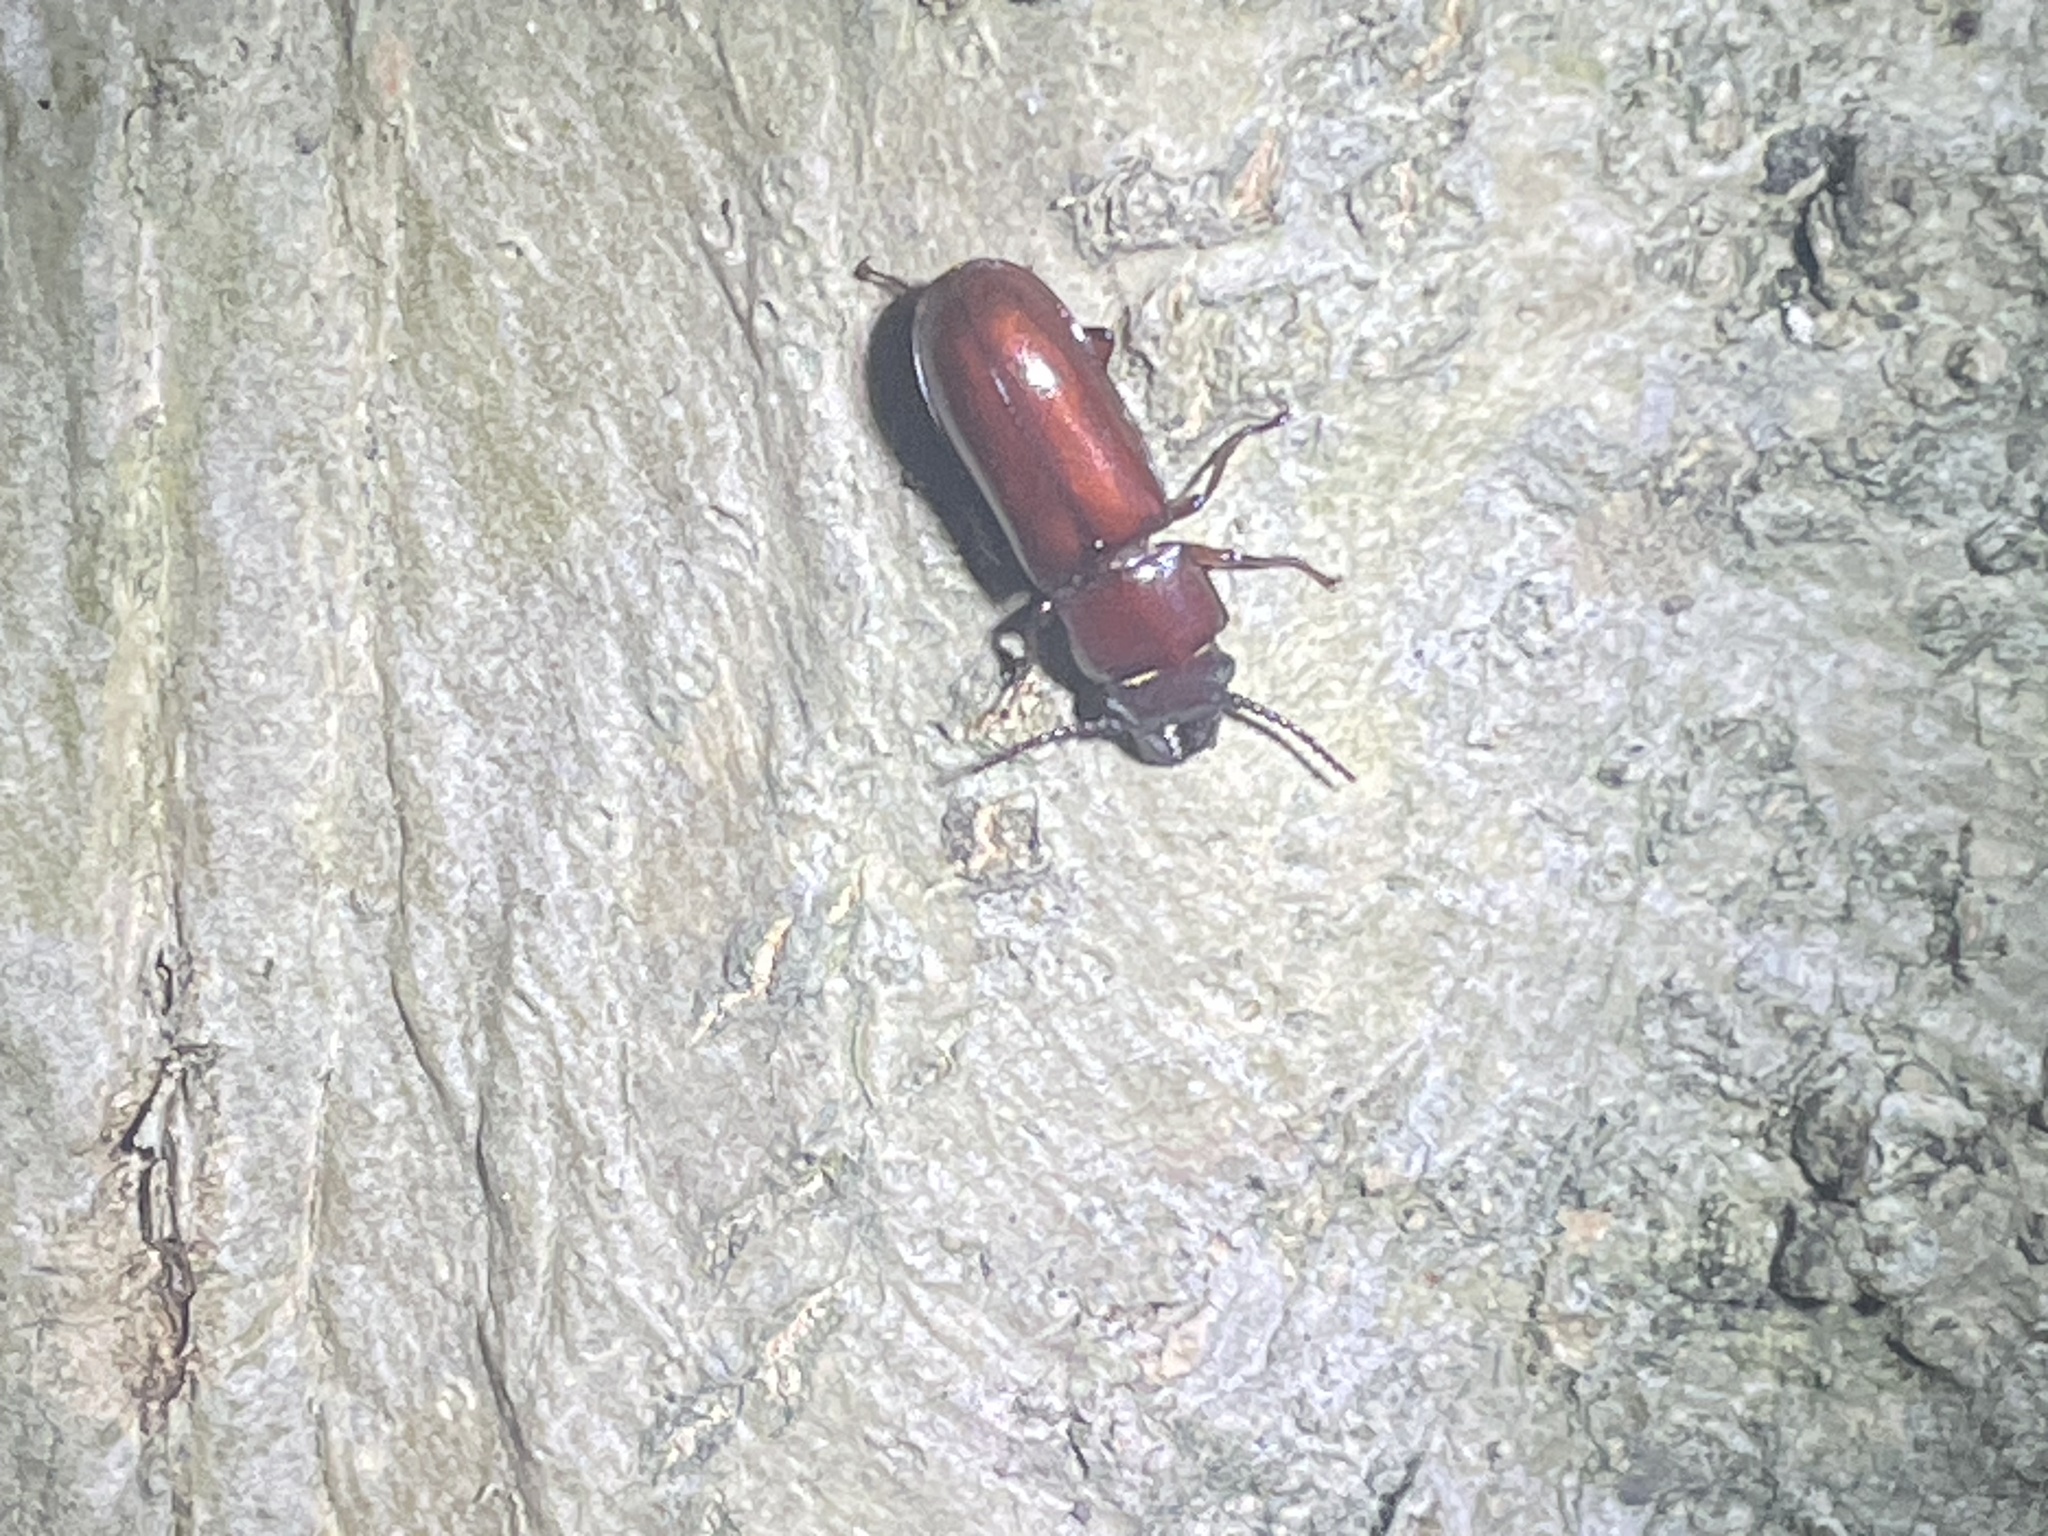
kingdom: Animalia
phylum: Arthropoda
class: Insecta
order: Coleoptera
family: Cerambycidae
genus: Neandra
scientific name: Neandra brunnea
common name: Pole borer
